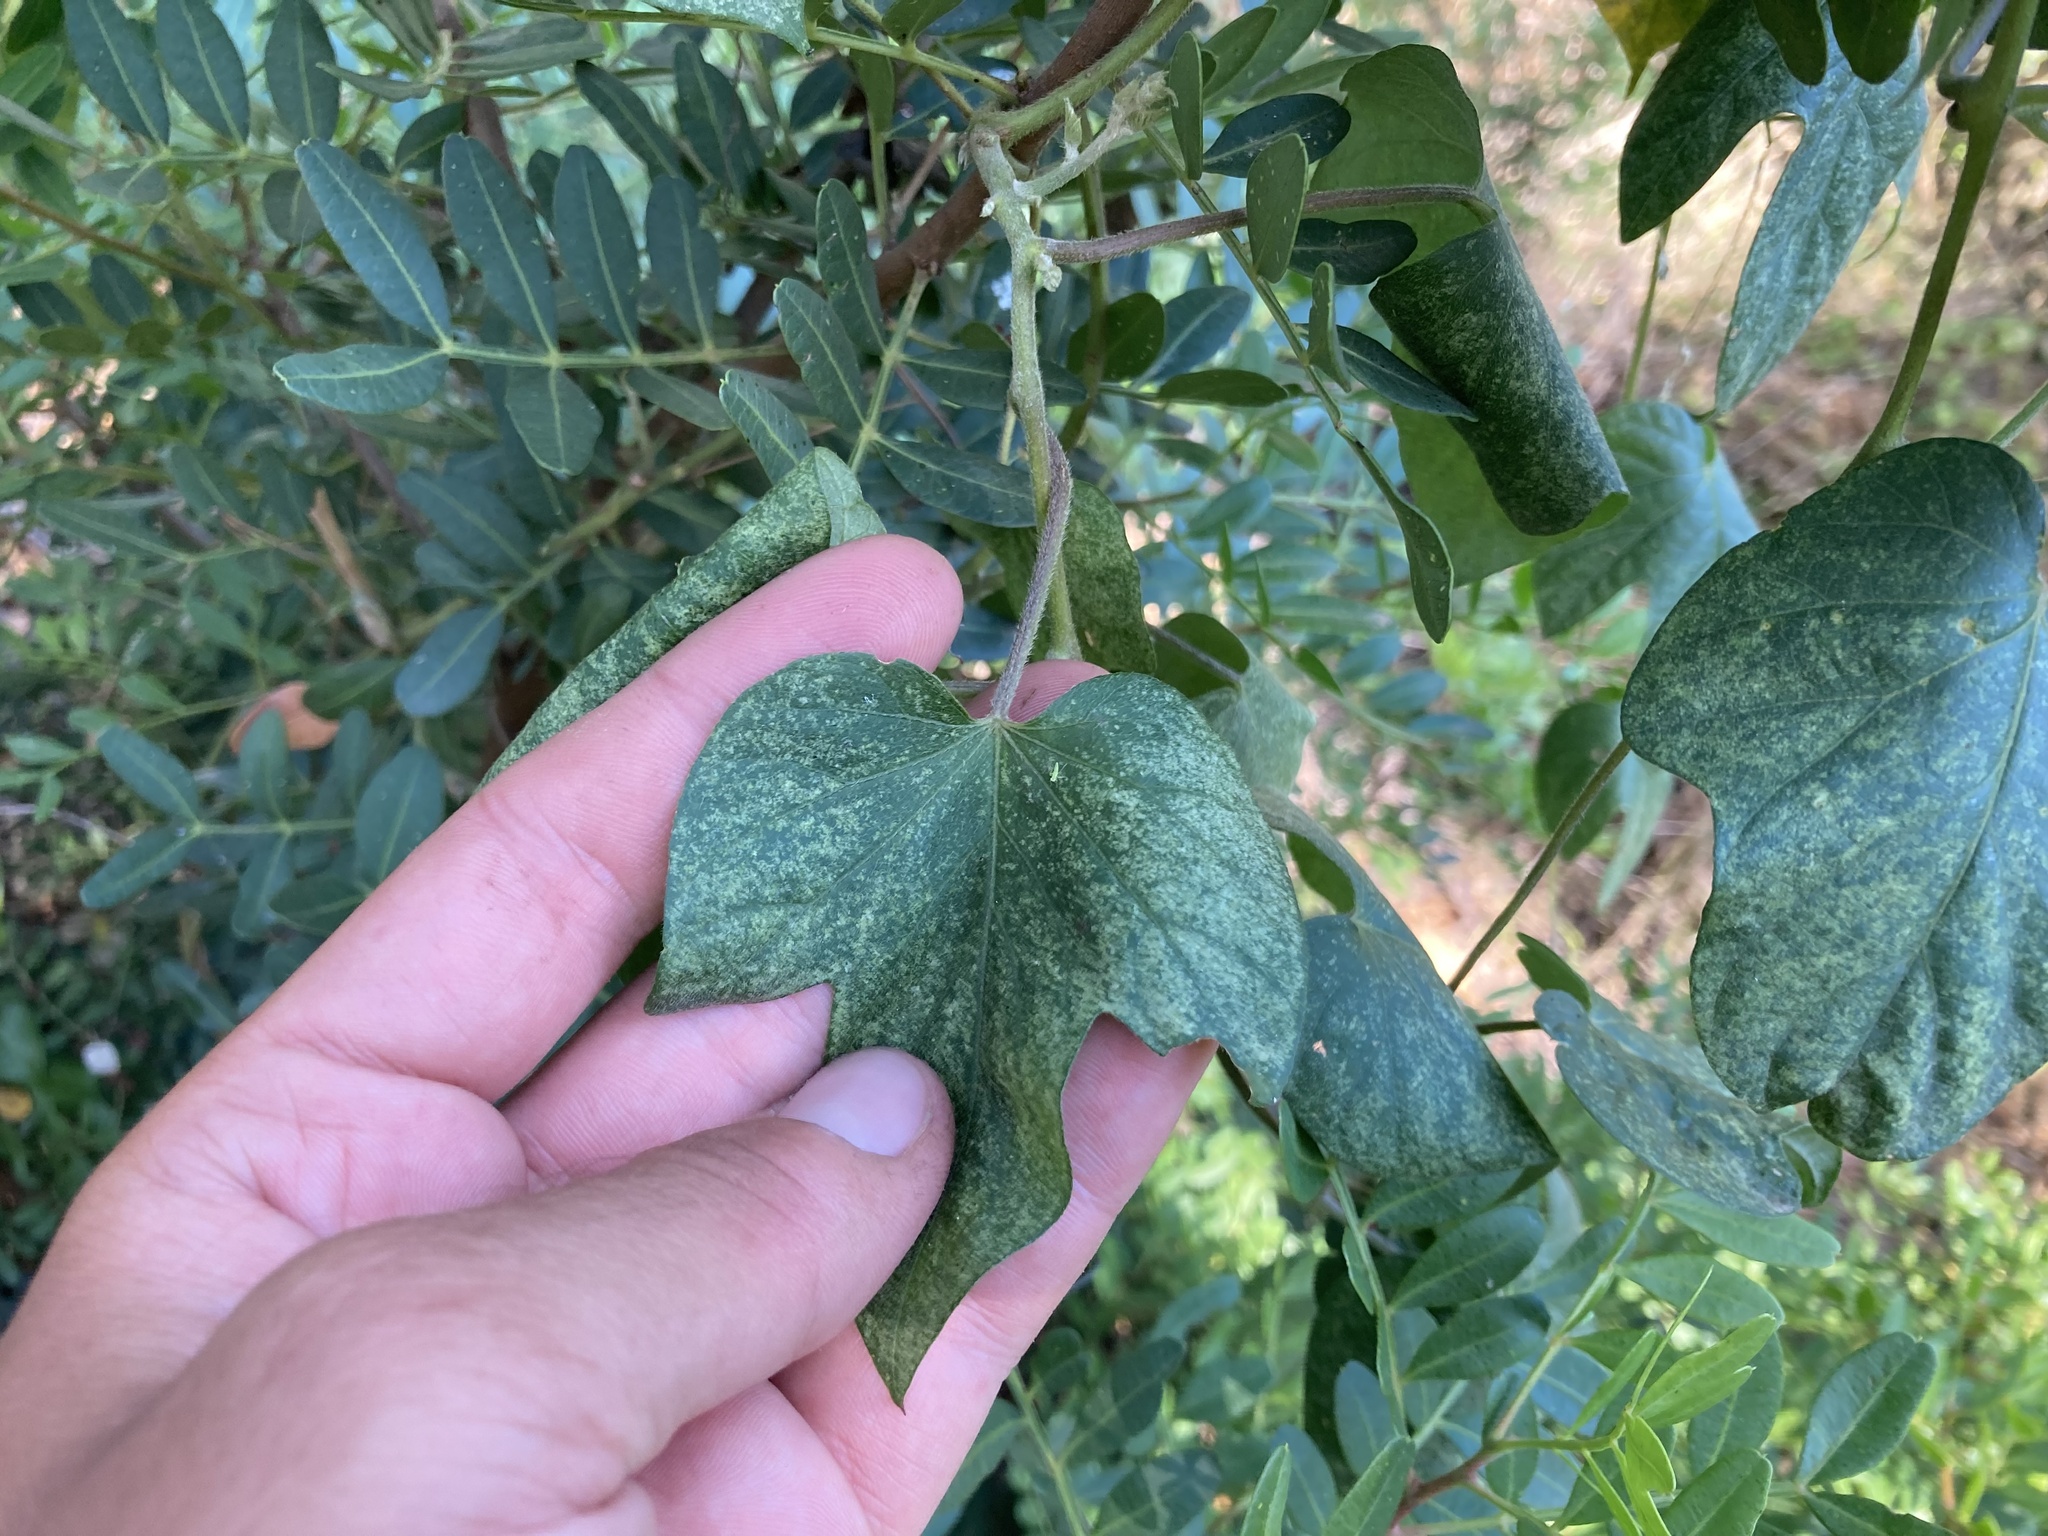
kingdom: Plantae
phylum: Tracheophyta
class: Magnoliopsida
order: Solanales
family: Convolvulaceae
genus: Ipomoea
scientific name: Ipomoea indica
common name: Blue dawnflower
